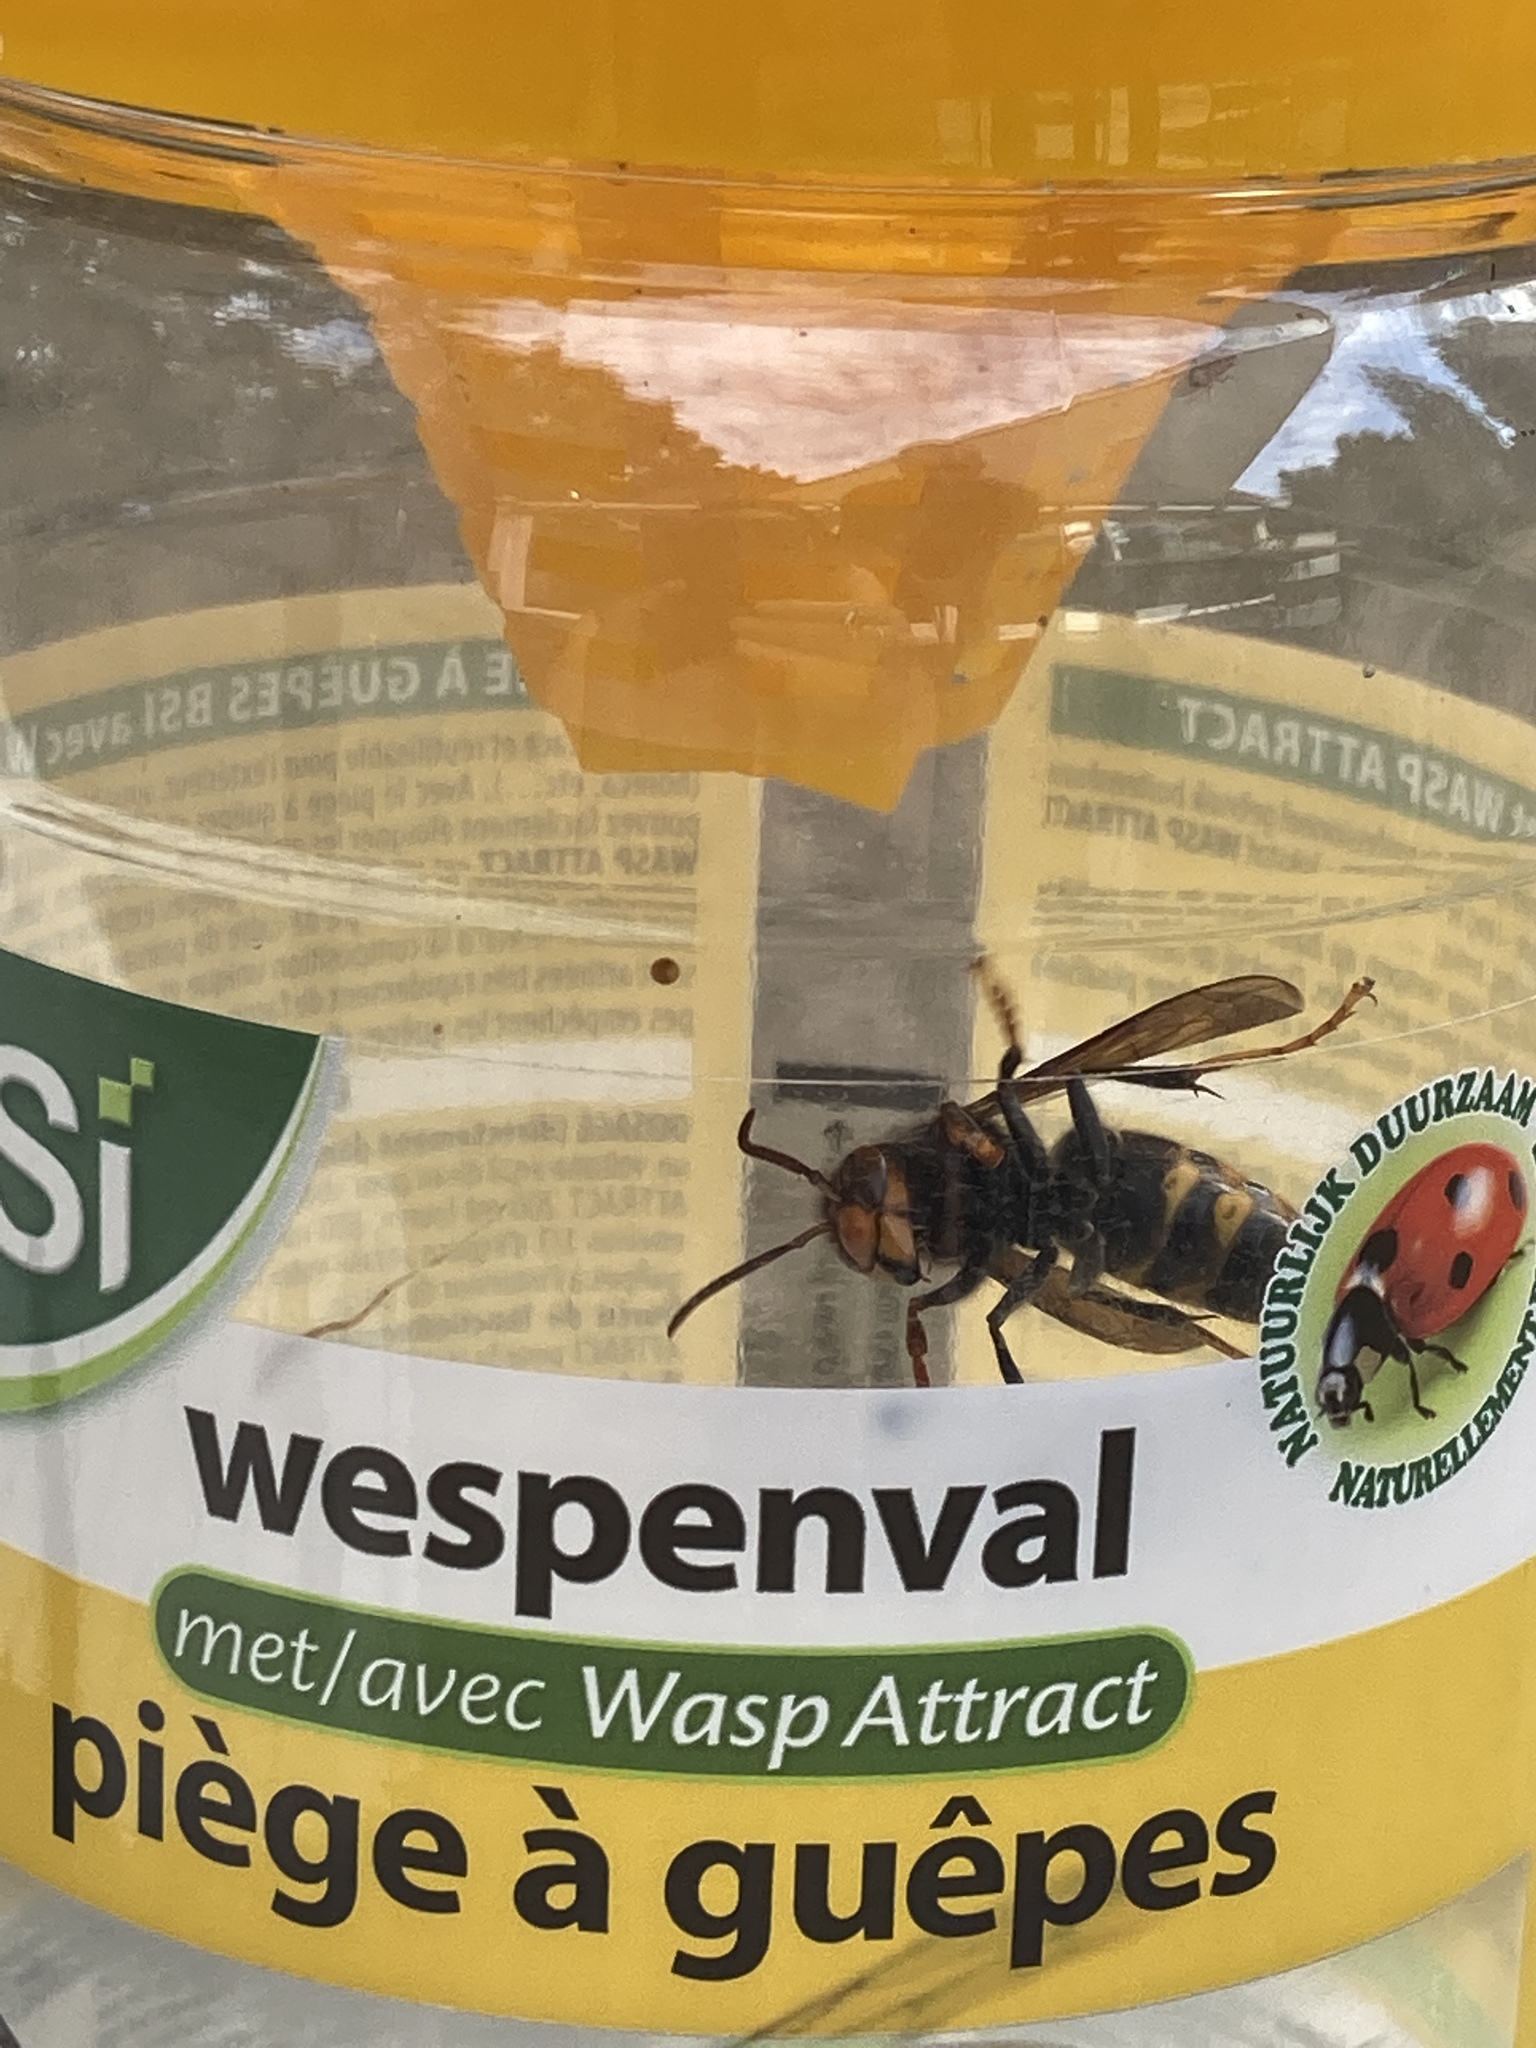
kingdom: Animalia
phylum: Arthropoda
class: Insecta
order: Hymenoptera
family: Vespidae
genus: Vespa
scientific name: Vespa velutina
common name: Asian hornet
